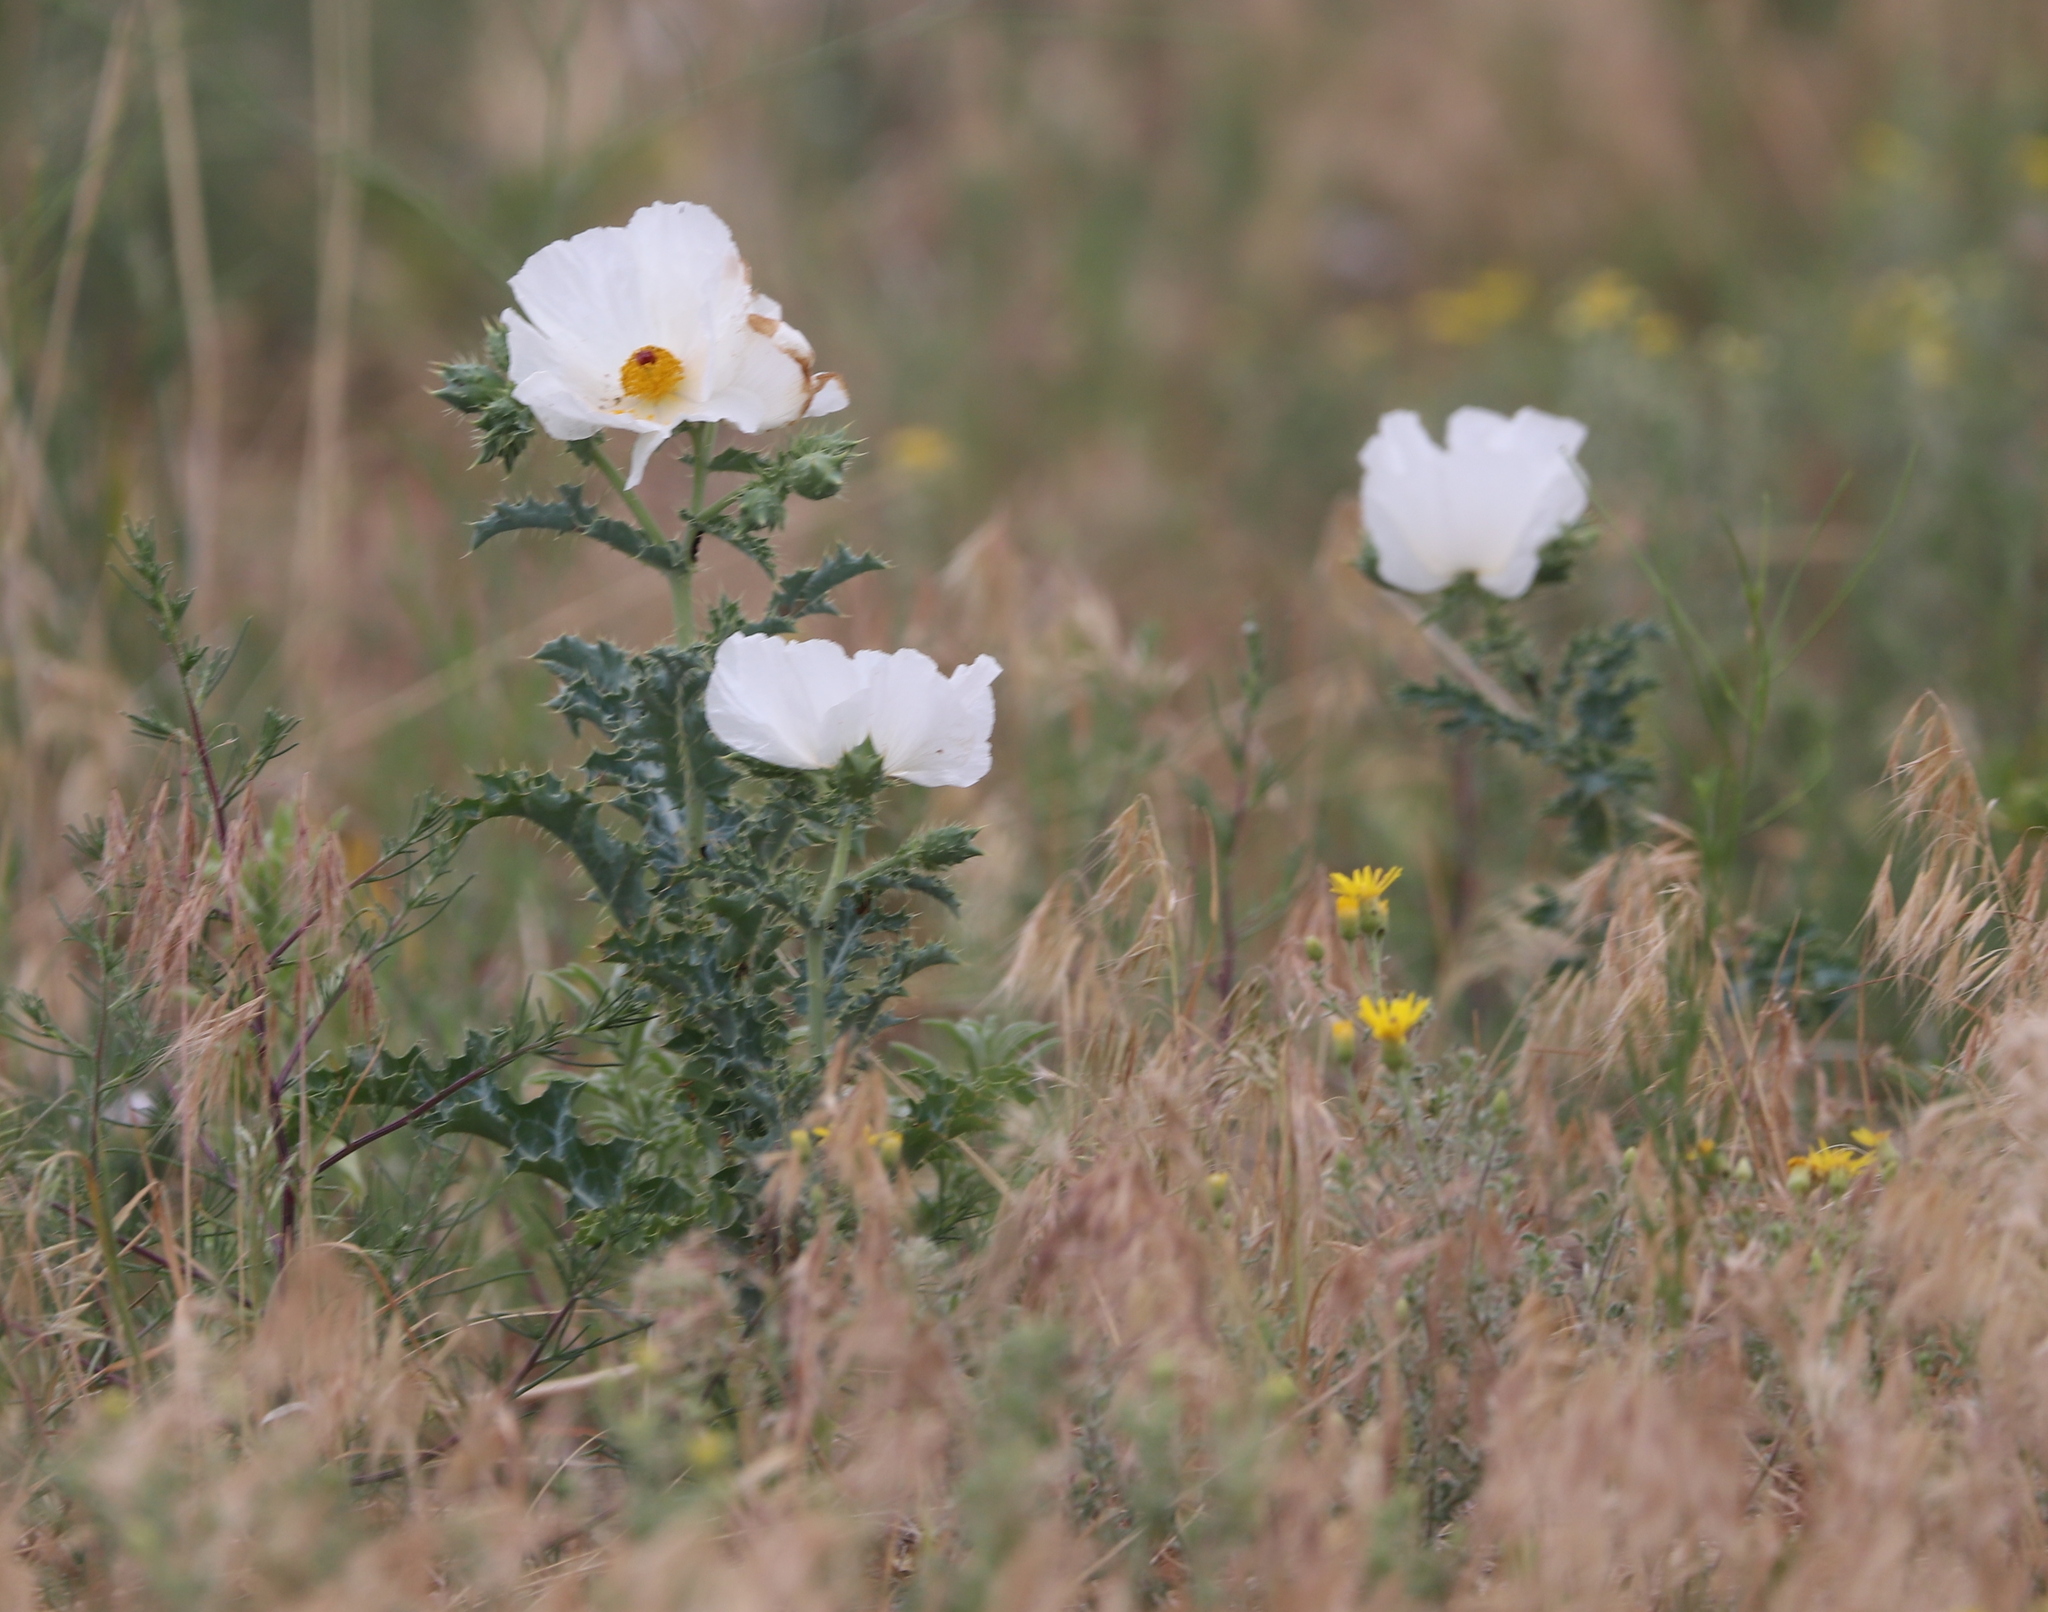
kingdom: Plantae
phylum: Tracheophyta
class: Magnoliopsida
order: Ranunculales
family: Papaveraceae
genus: Argemone
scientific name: Argemone polyanthemos
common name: Plains prickly-poppy
